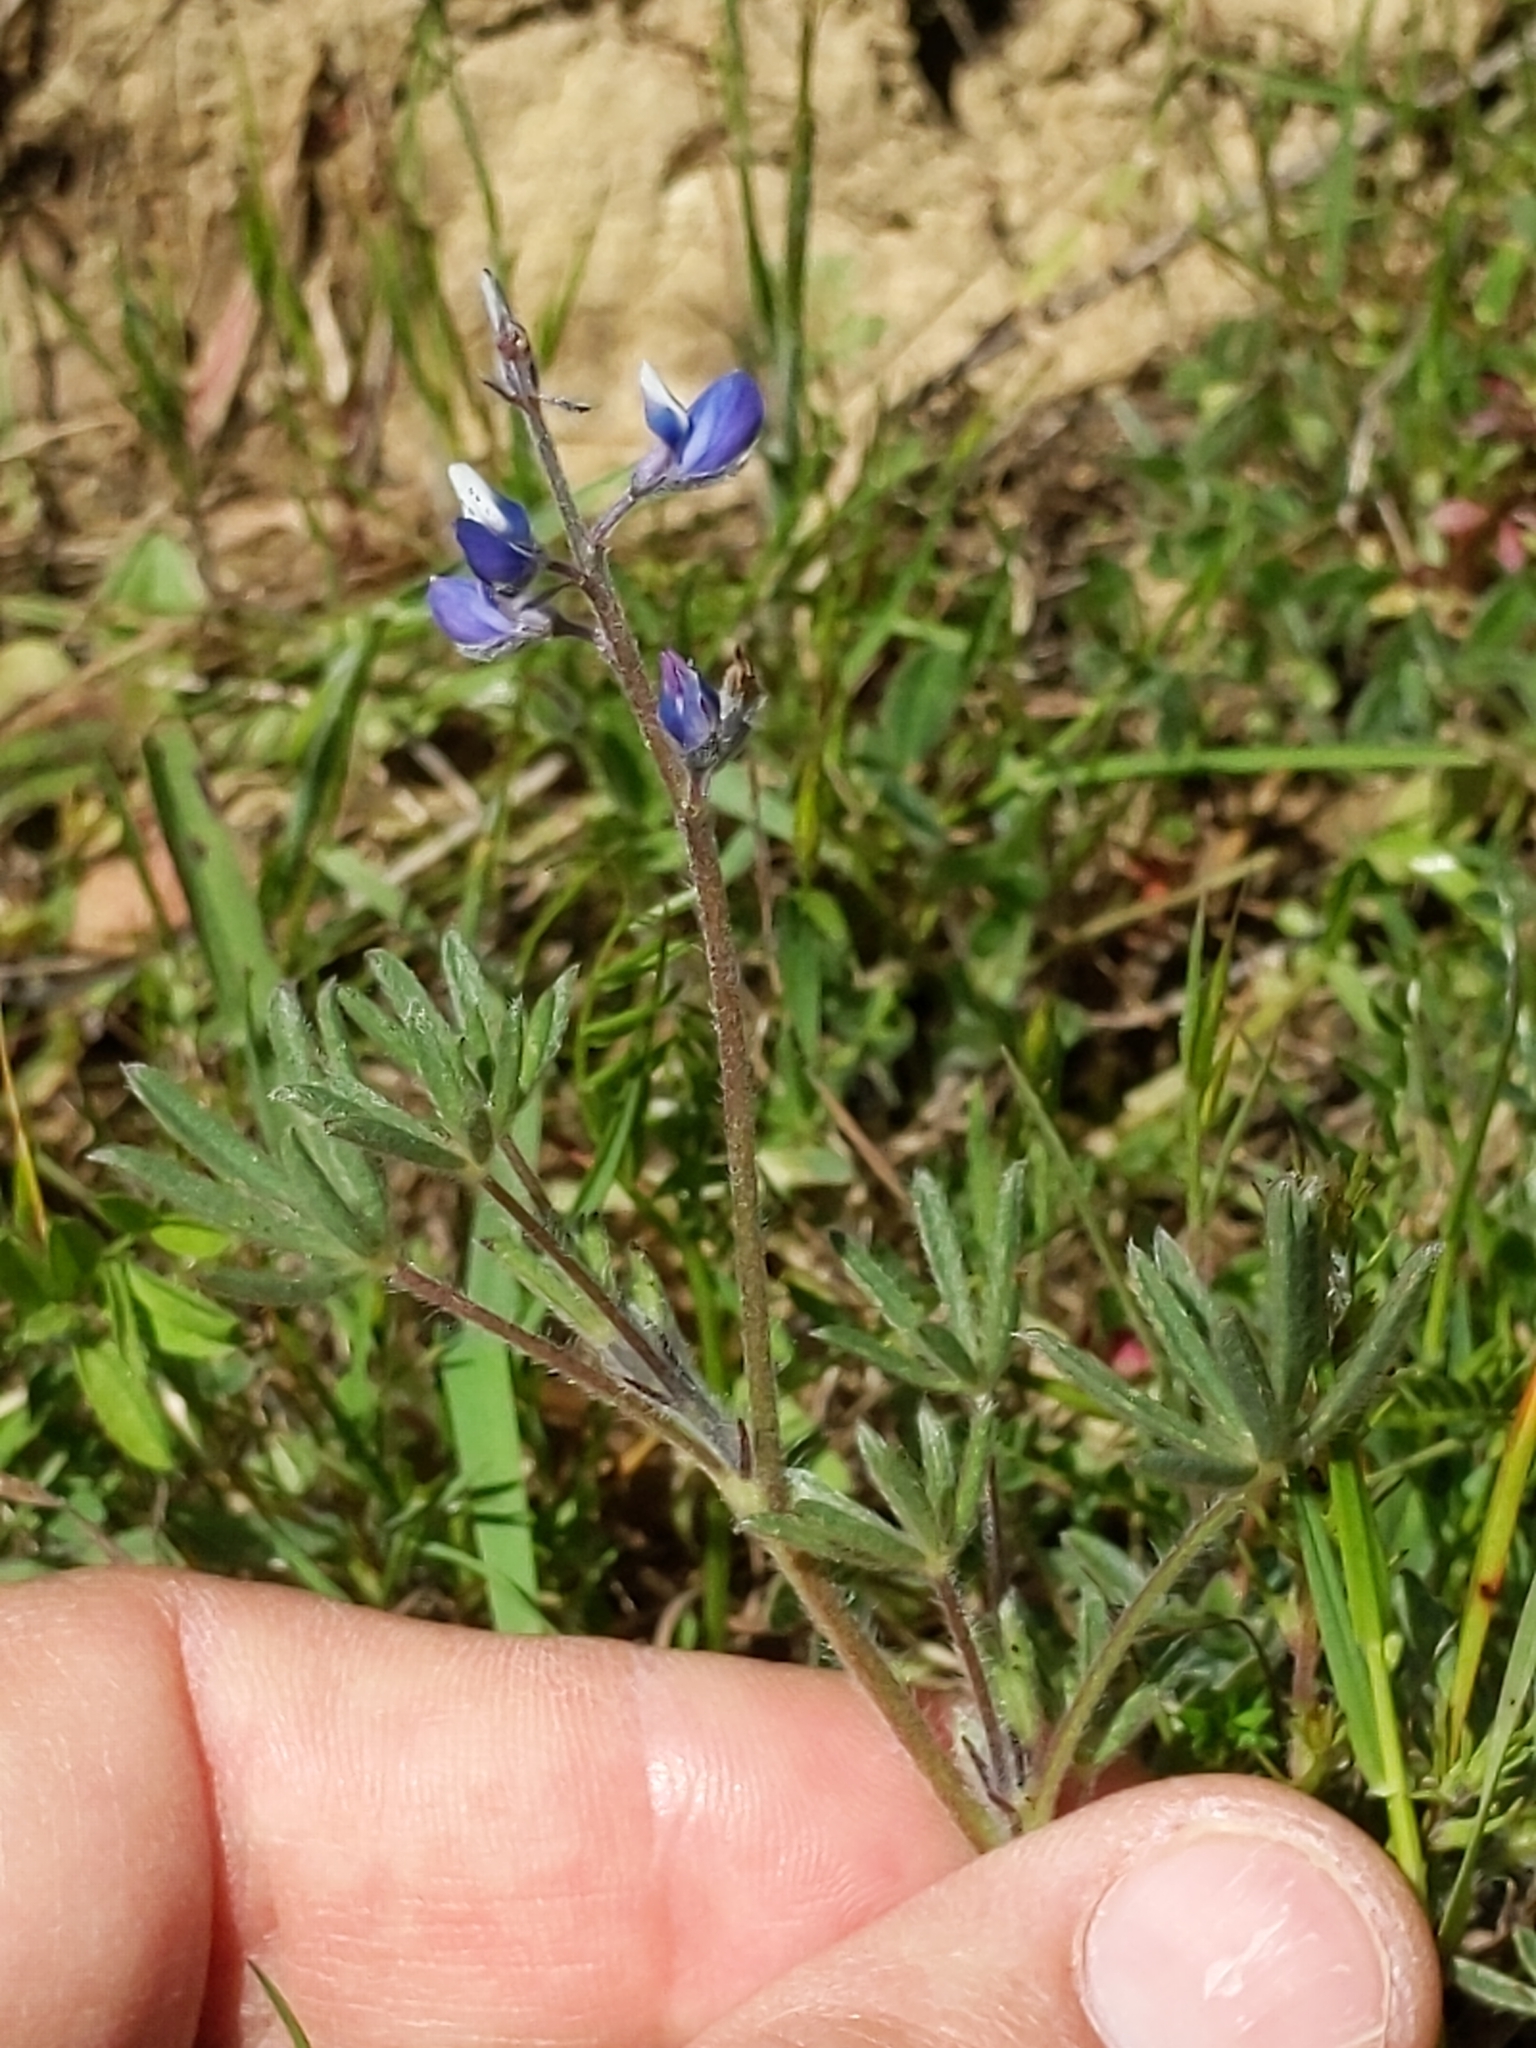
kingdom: Plantae
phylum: Tracheophyta
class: Magnoliopsida
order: Fabales
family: Fabaceae
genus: Lupinus
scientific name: Lupinus bicolor
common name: Miniature lupine
